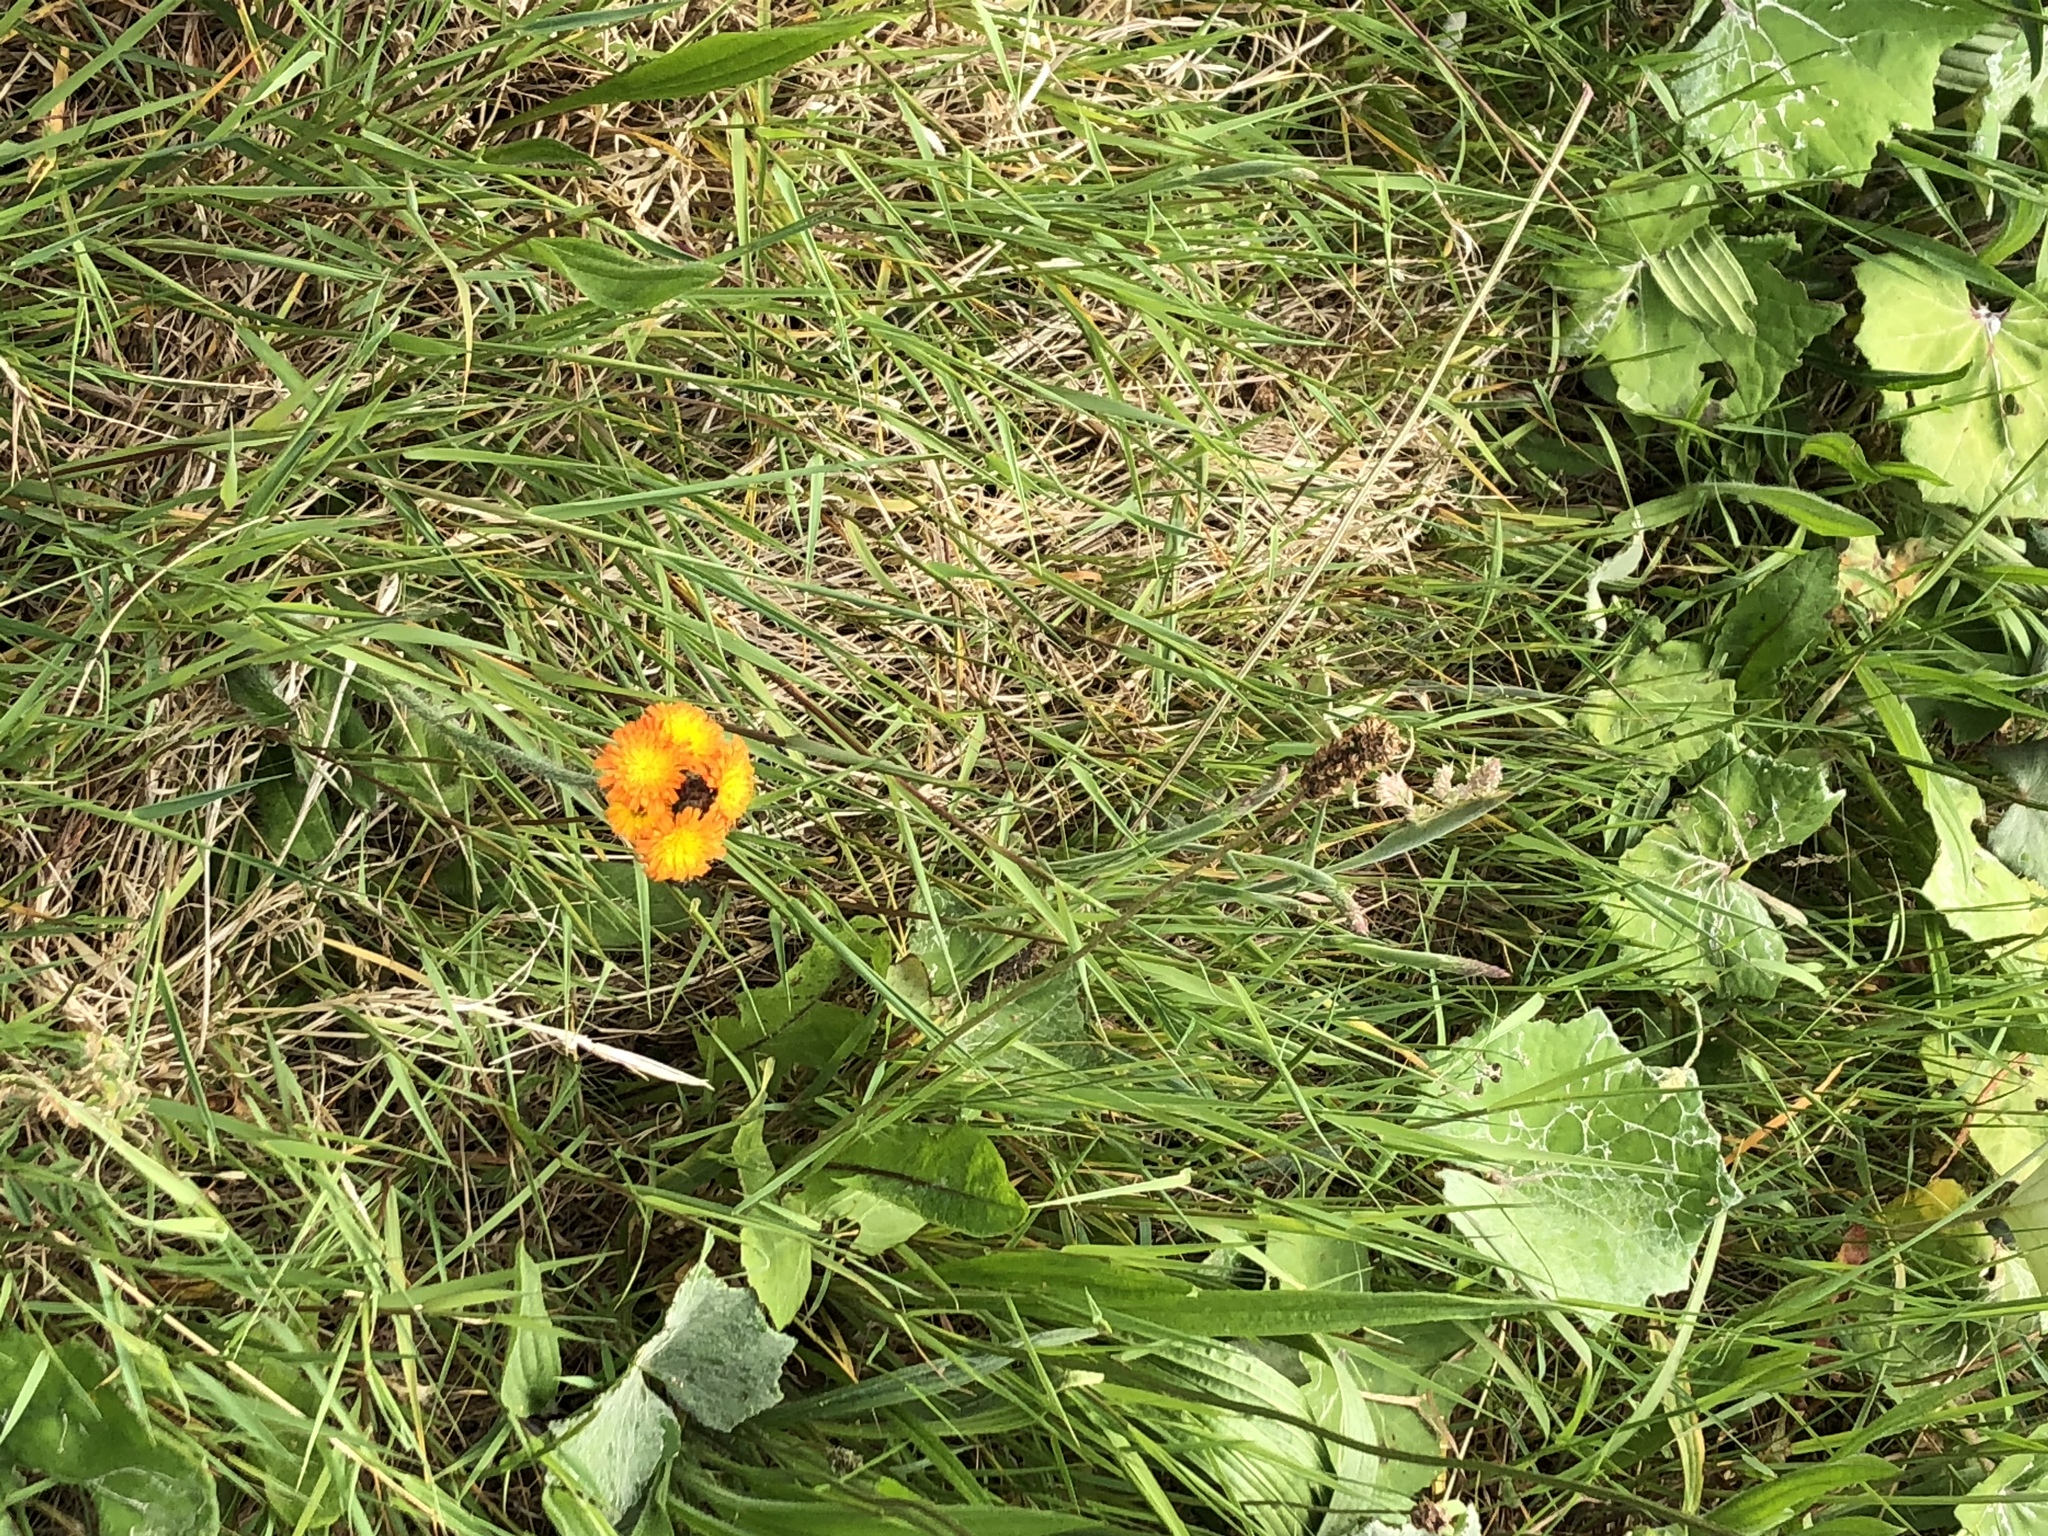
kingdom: Plantae
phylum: Tracheophyta
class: Magnoliopsida
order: Asterales
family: Asteraceae
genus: Pilosella
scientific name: Pilosella aurantiaca
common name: Fox-and-cubs
